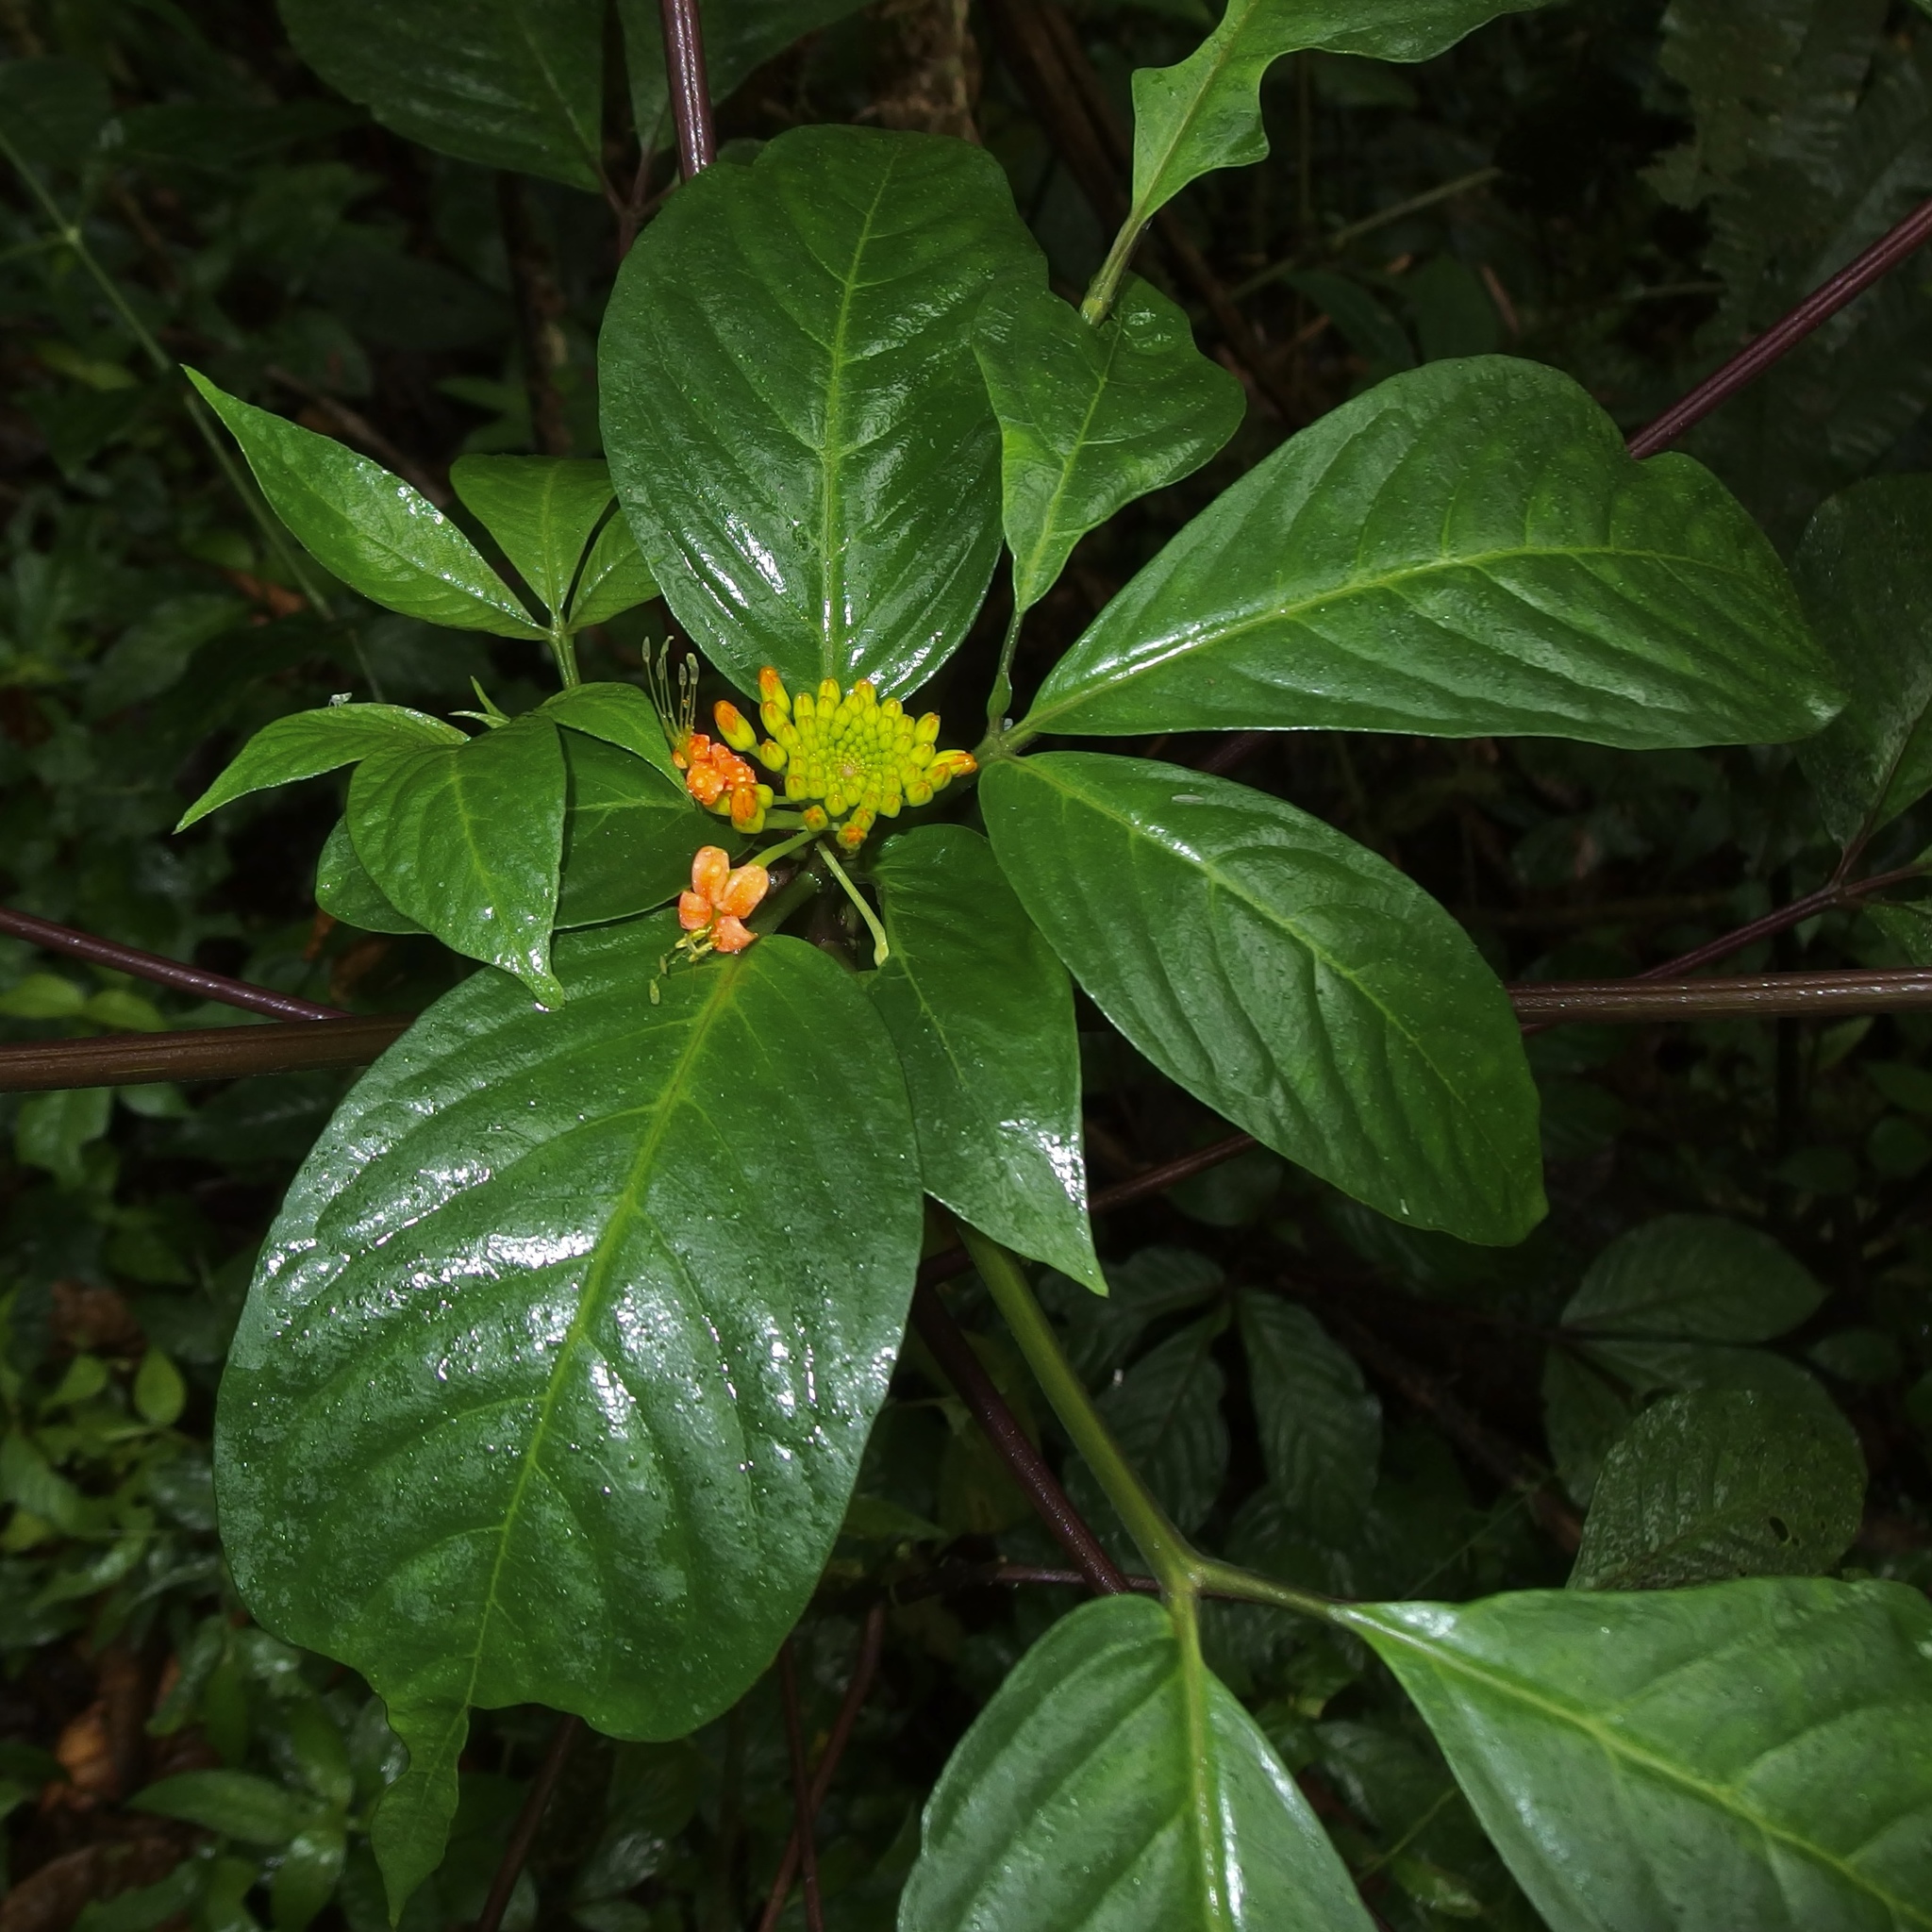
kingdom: Plantae
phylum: Tracheophyta
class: Magnoliopsida
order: Brassicales
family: Cleomaceae
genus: Podandrogyne
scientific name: Podandrogyne brevipedunculata
